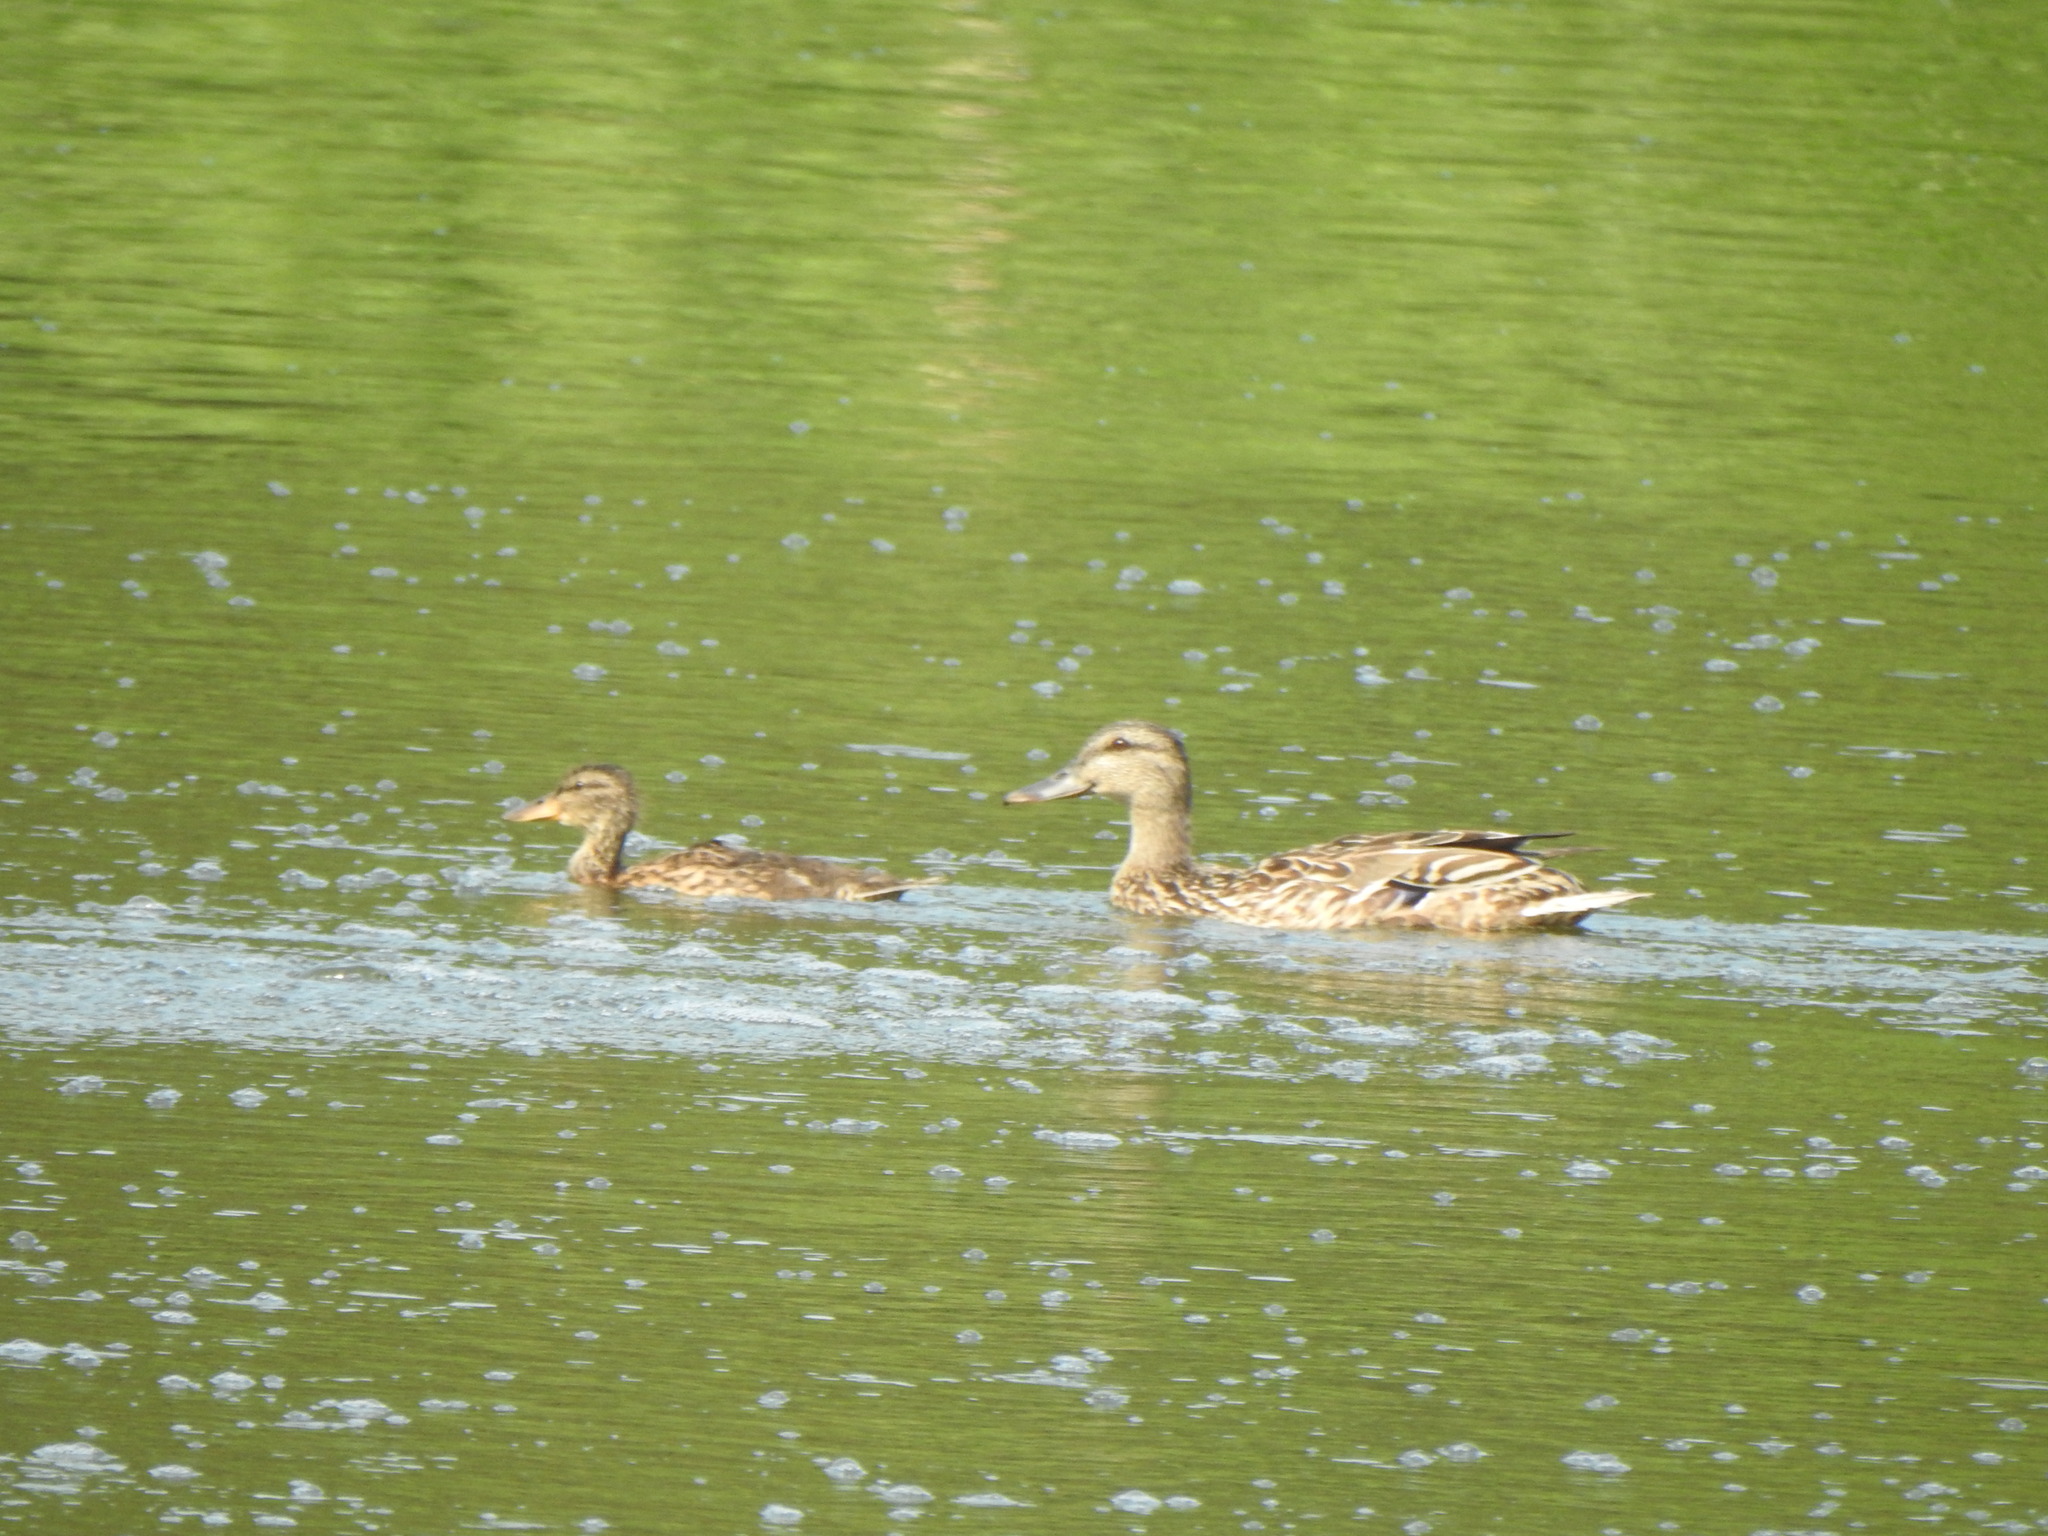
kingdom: Animalia
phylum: Chordata
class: Aves
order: Anseriformes
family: Anatidae
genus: Anas
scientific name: Anas platyrhynchos
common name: Mallard
